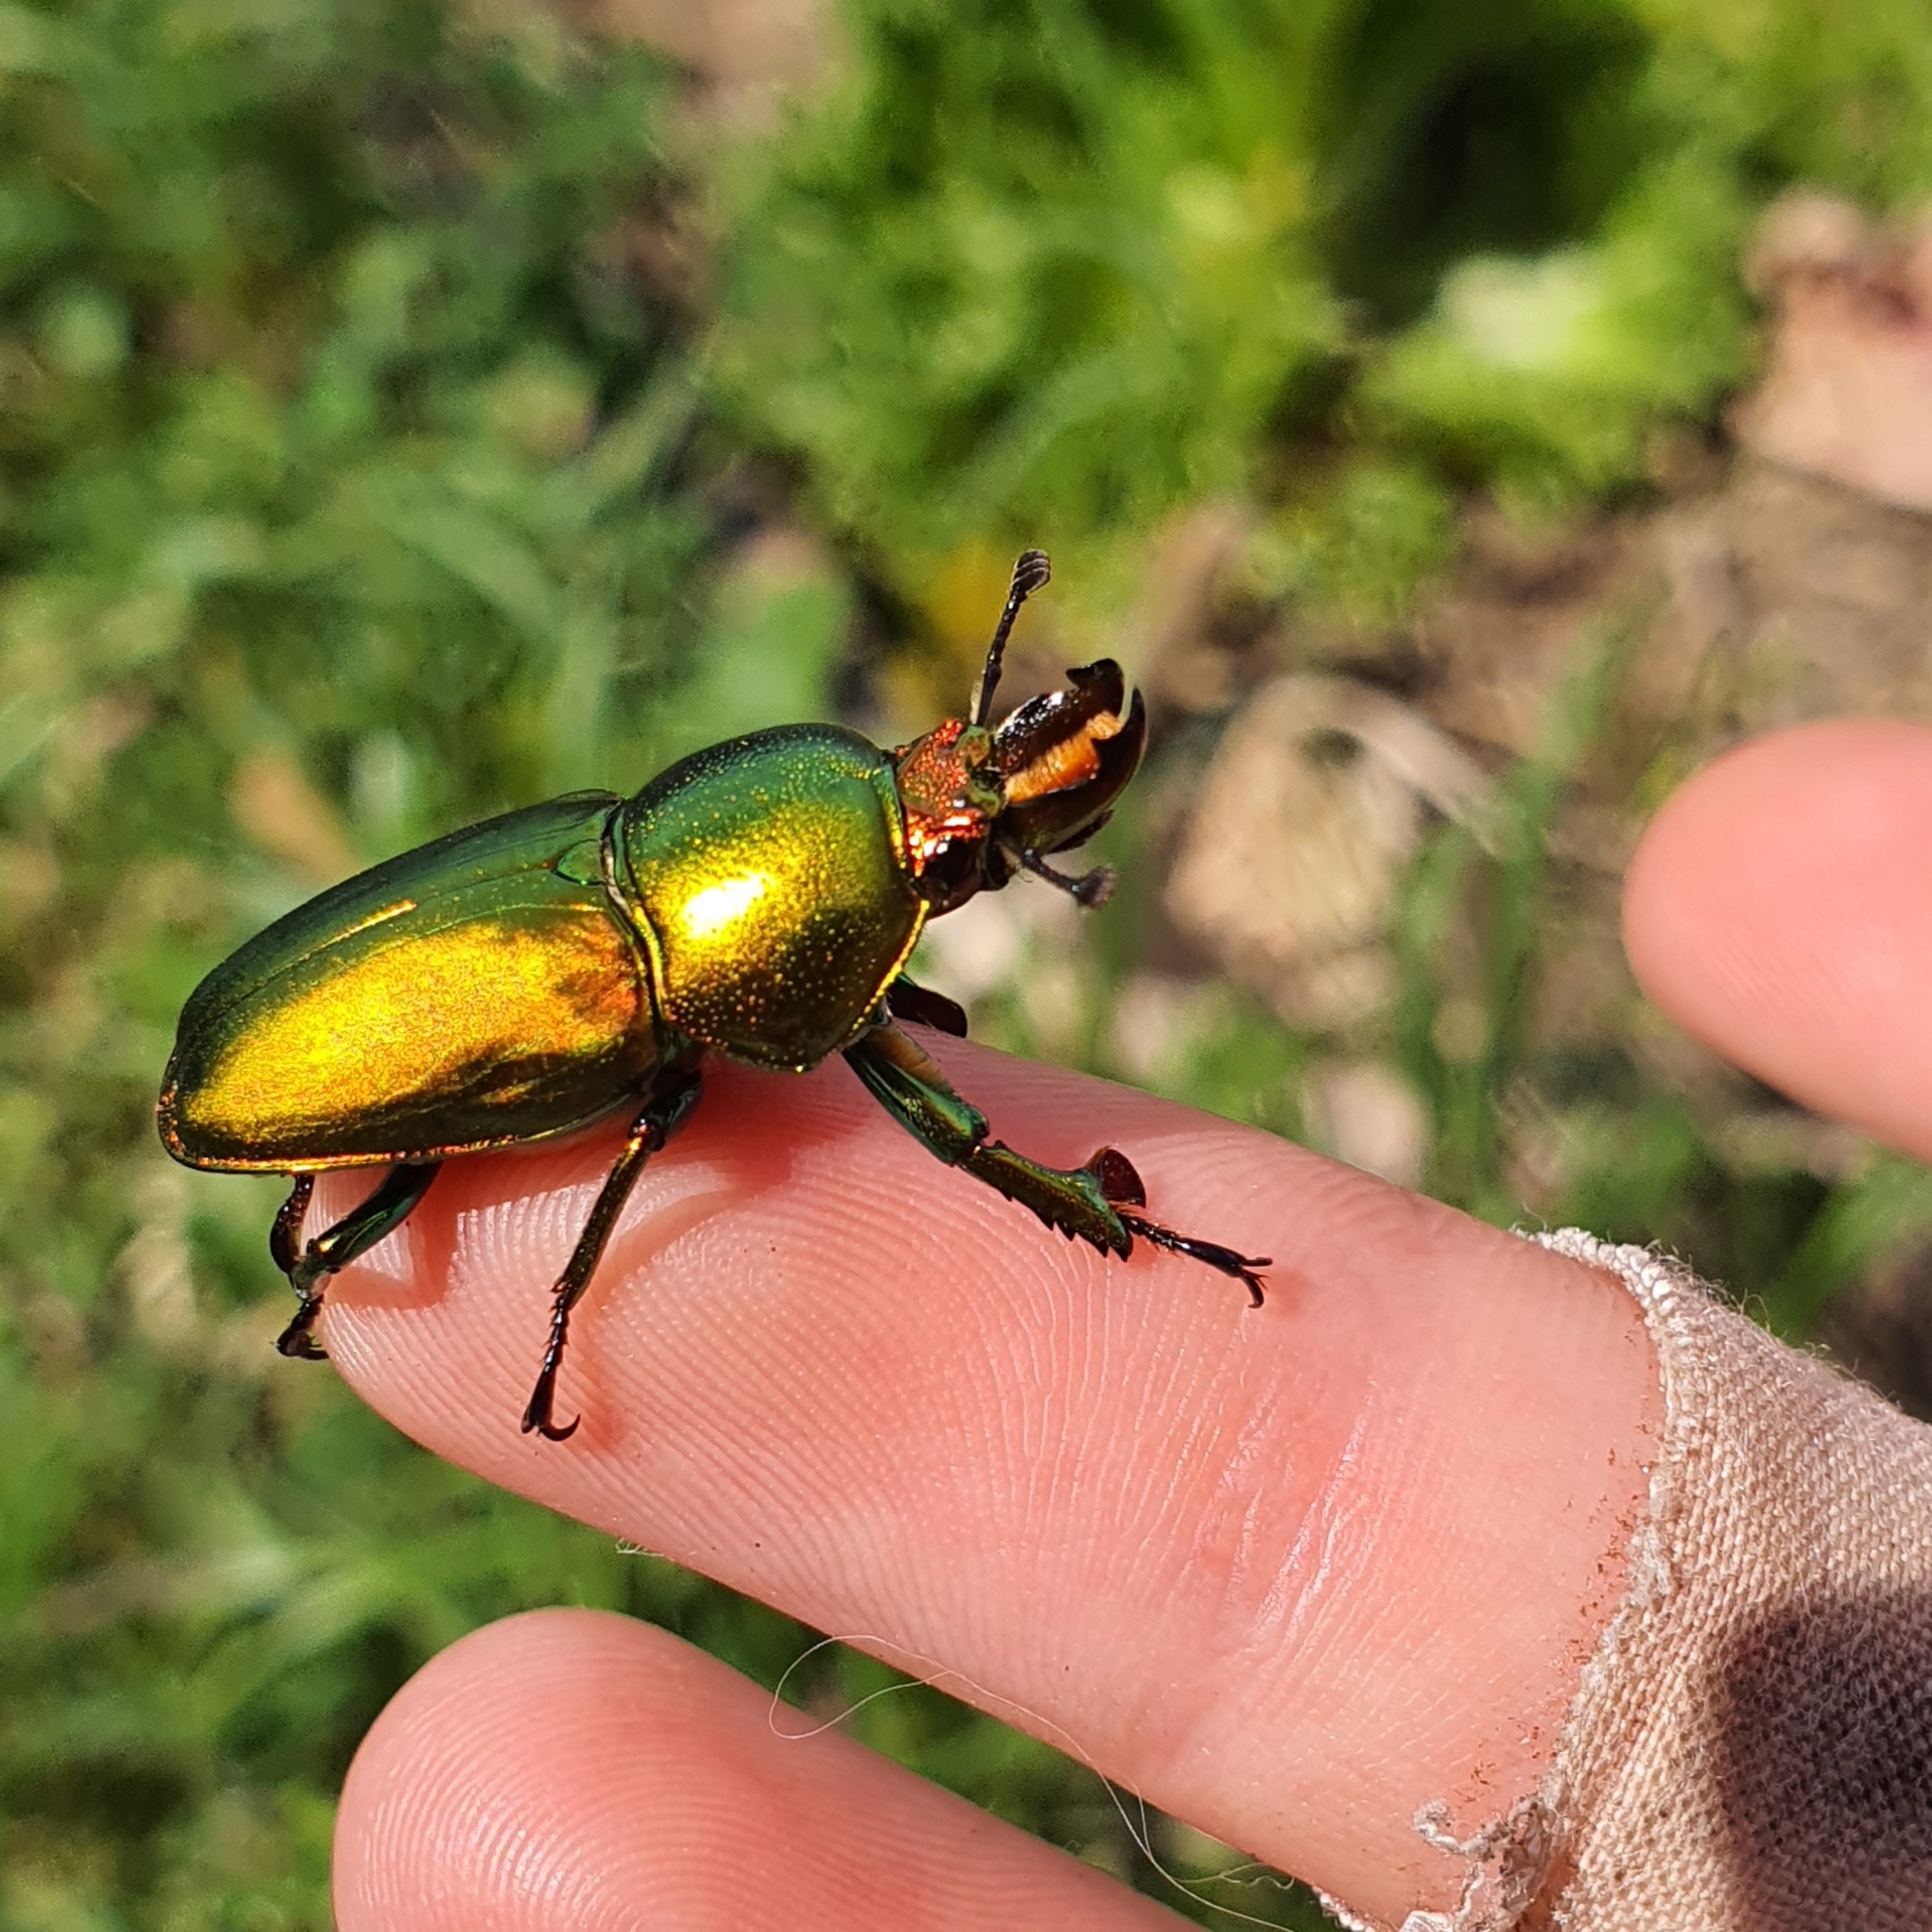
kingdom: Animalia
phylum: Arthropoda
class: Insecta
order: Coleoptera
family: Lucanidae
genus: Lamprima
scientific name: Lamprima aurata
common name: Golden stag beetle
